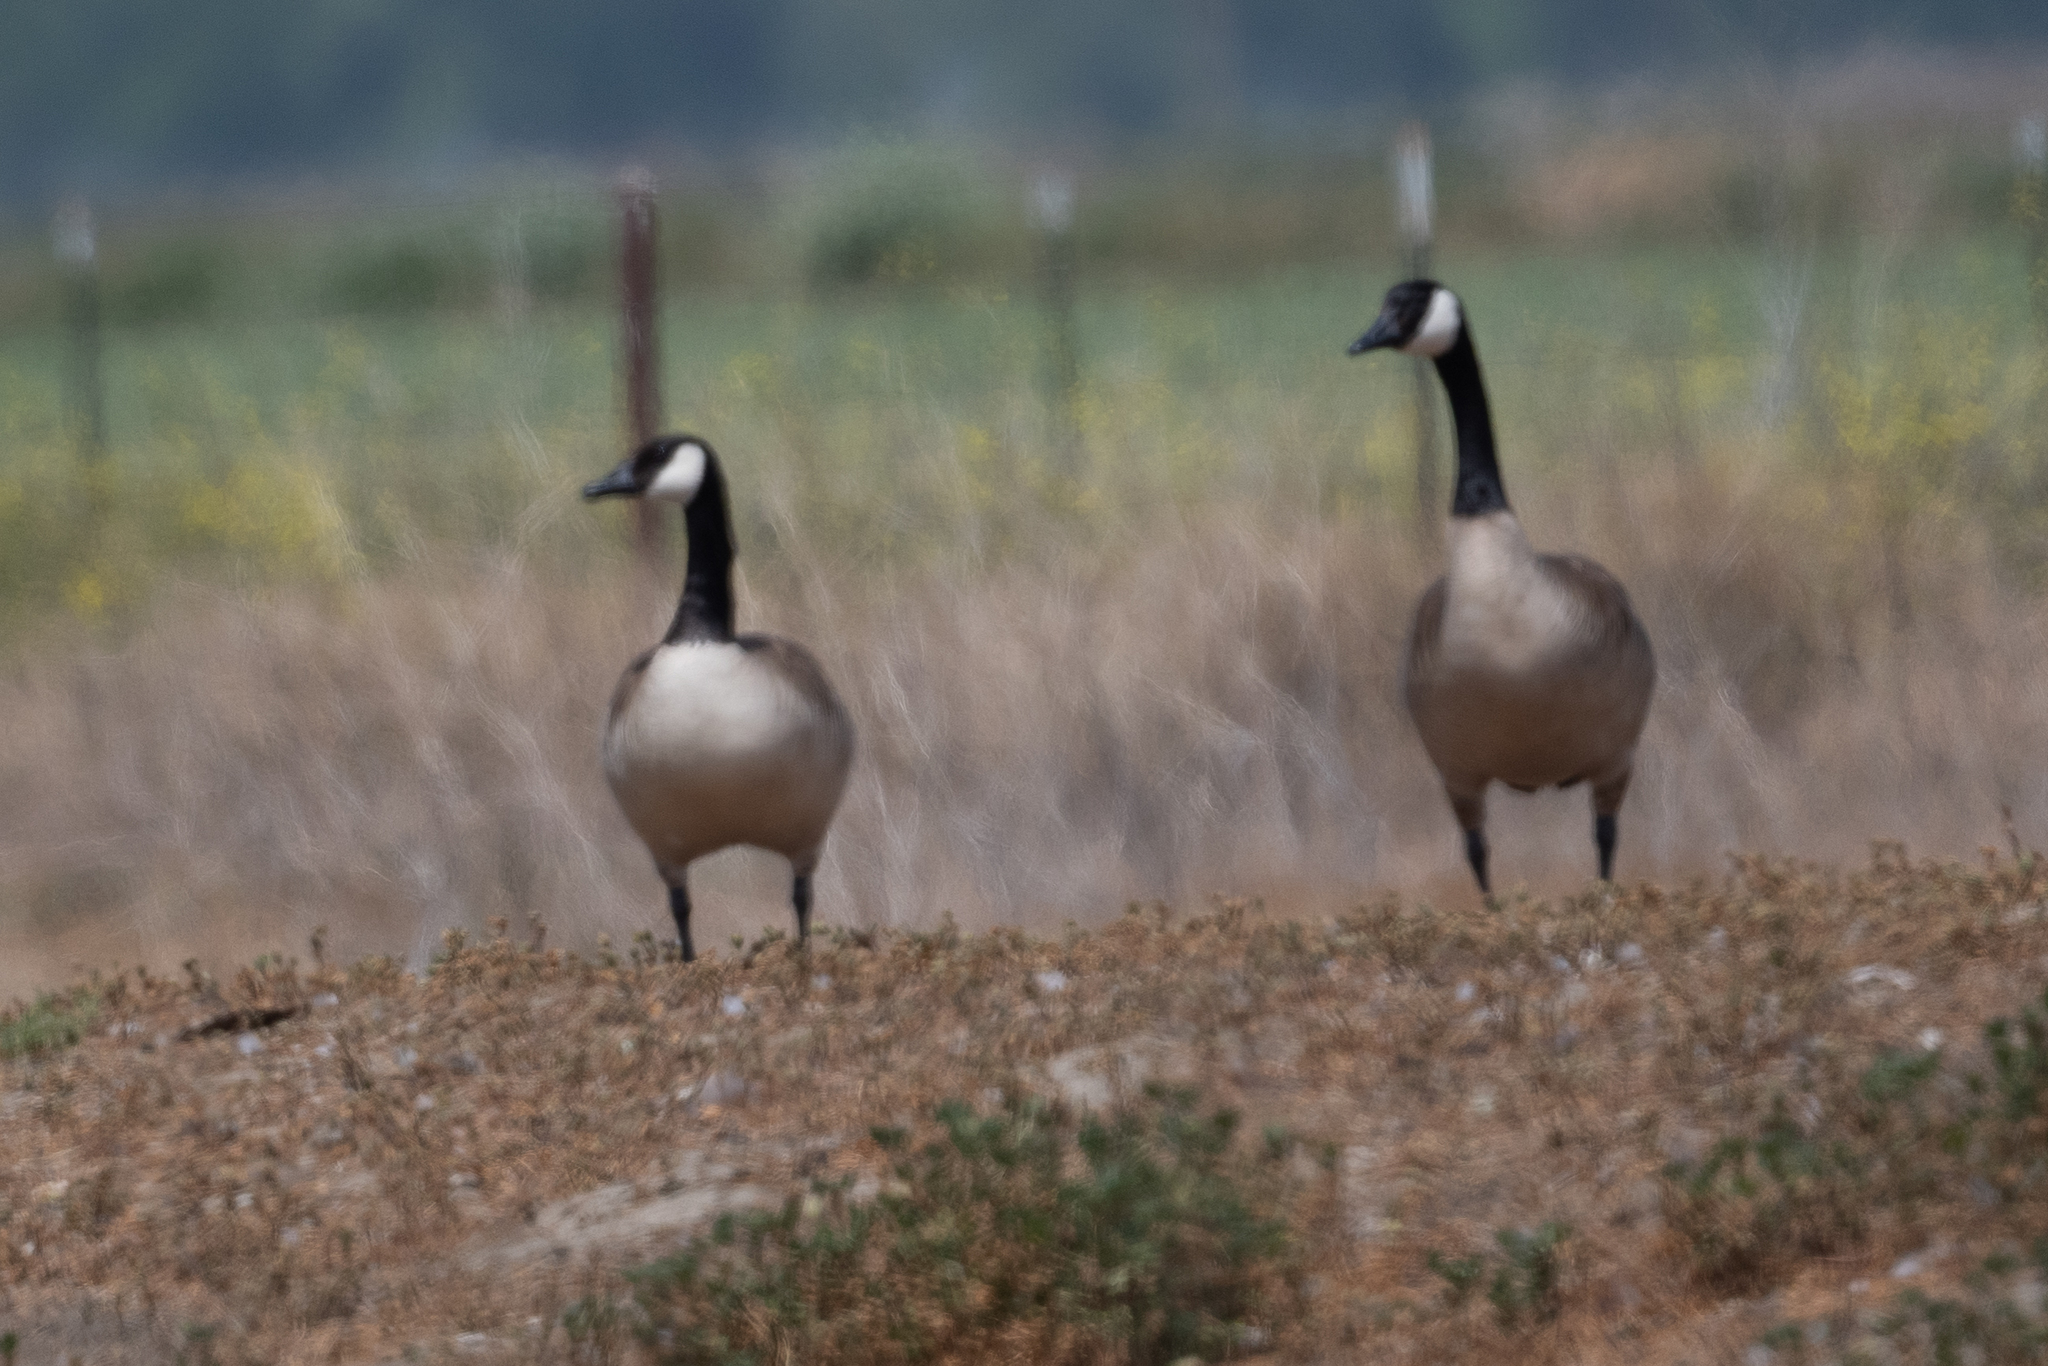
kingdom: Animalia
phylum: Chordata
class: Aves
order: Anseriformes
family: Anatidae
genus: Branta
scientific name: Branta canadensis
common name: Canada goose
